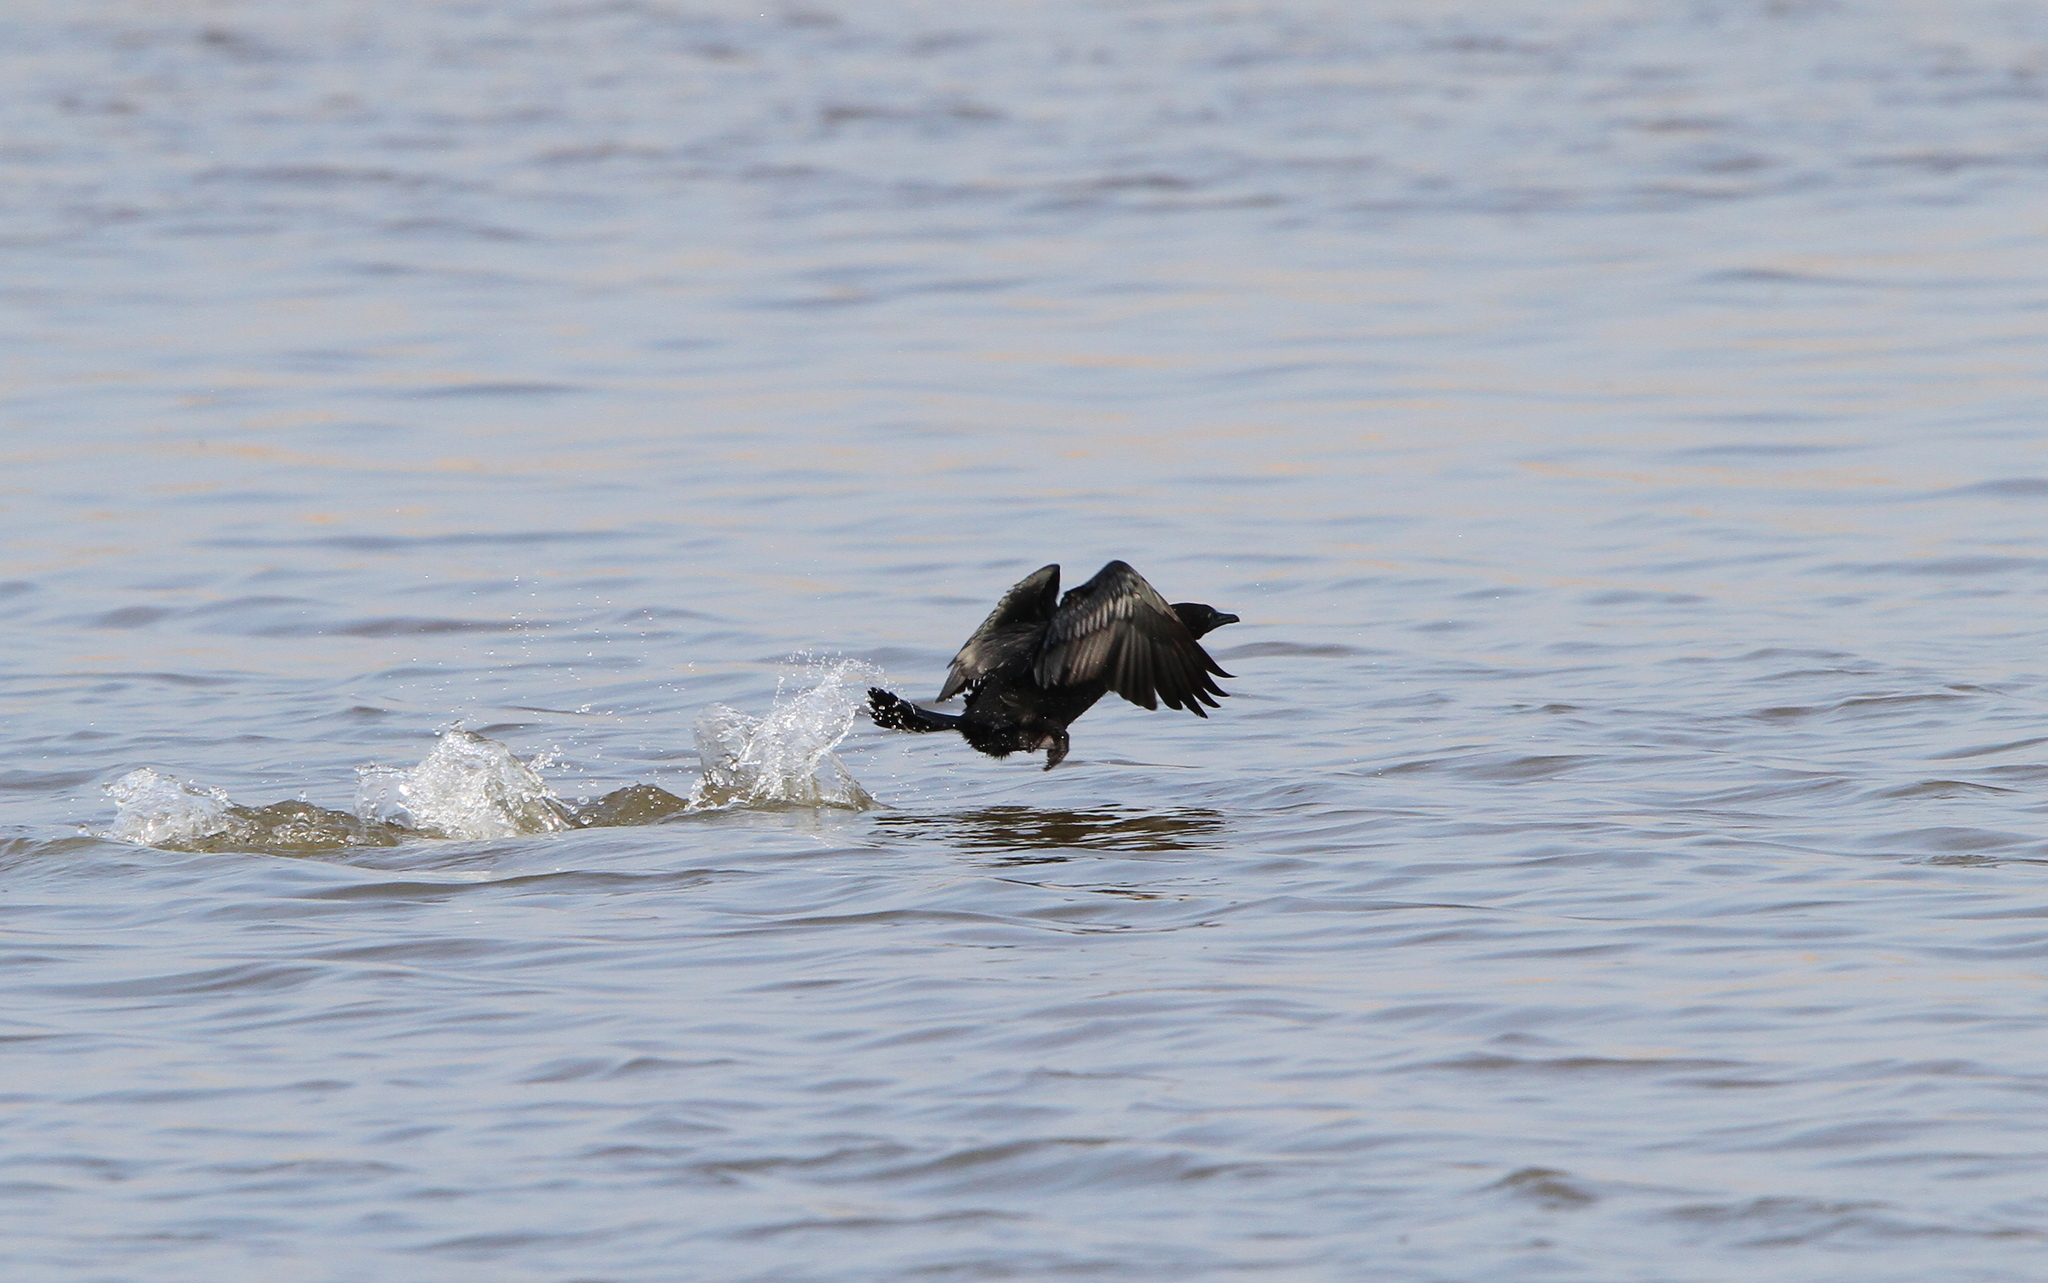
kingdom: Animalia
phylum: Chordata
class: Aves
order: Suliformes
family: Phalacrocoracidae
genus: Microcarbo
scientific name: Microcarbo pygmaeus
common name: Pygmy cormorant
